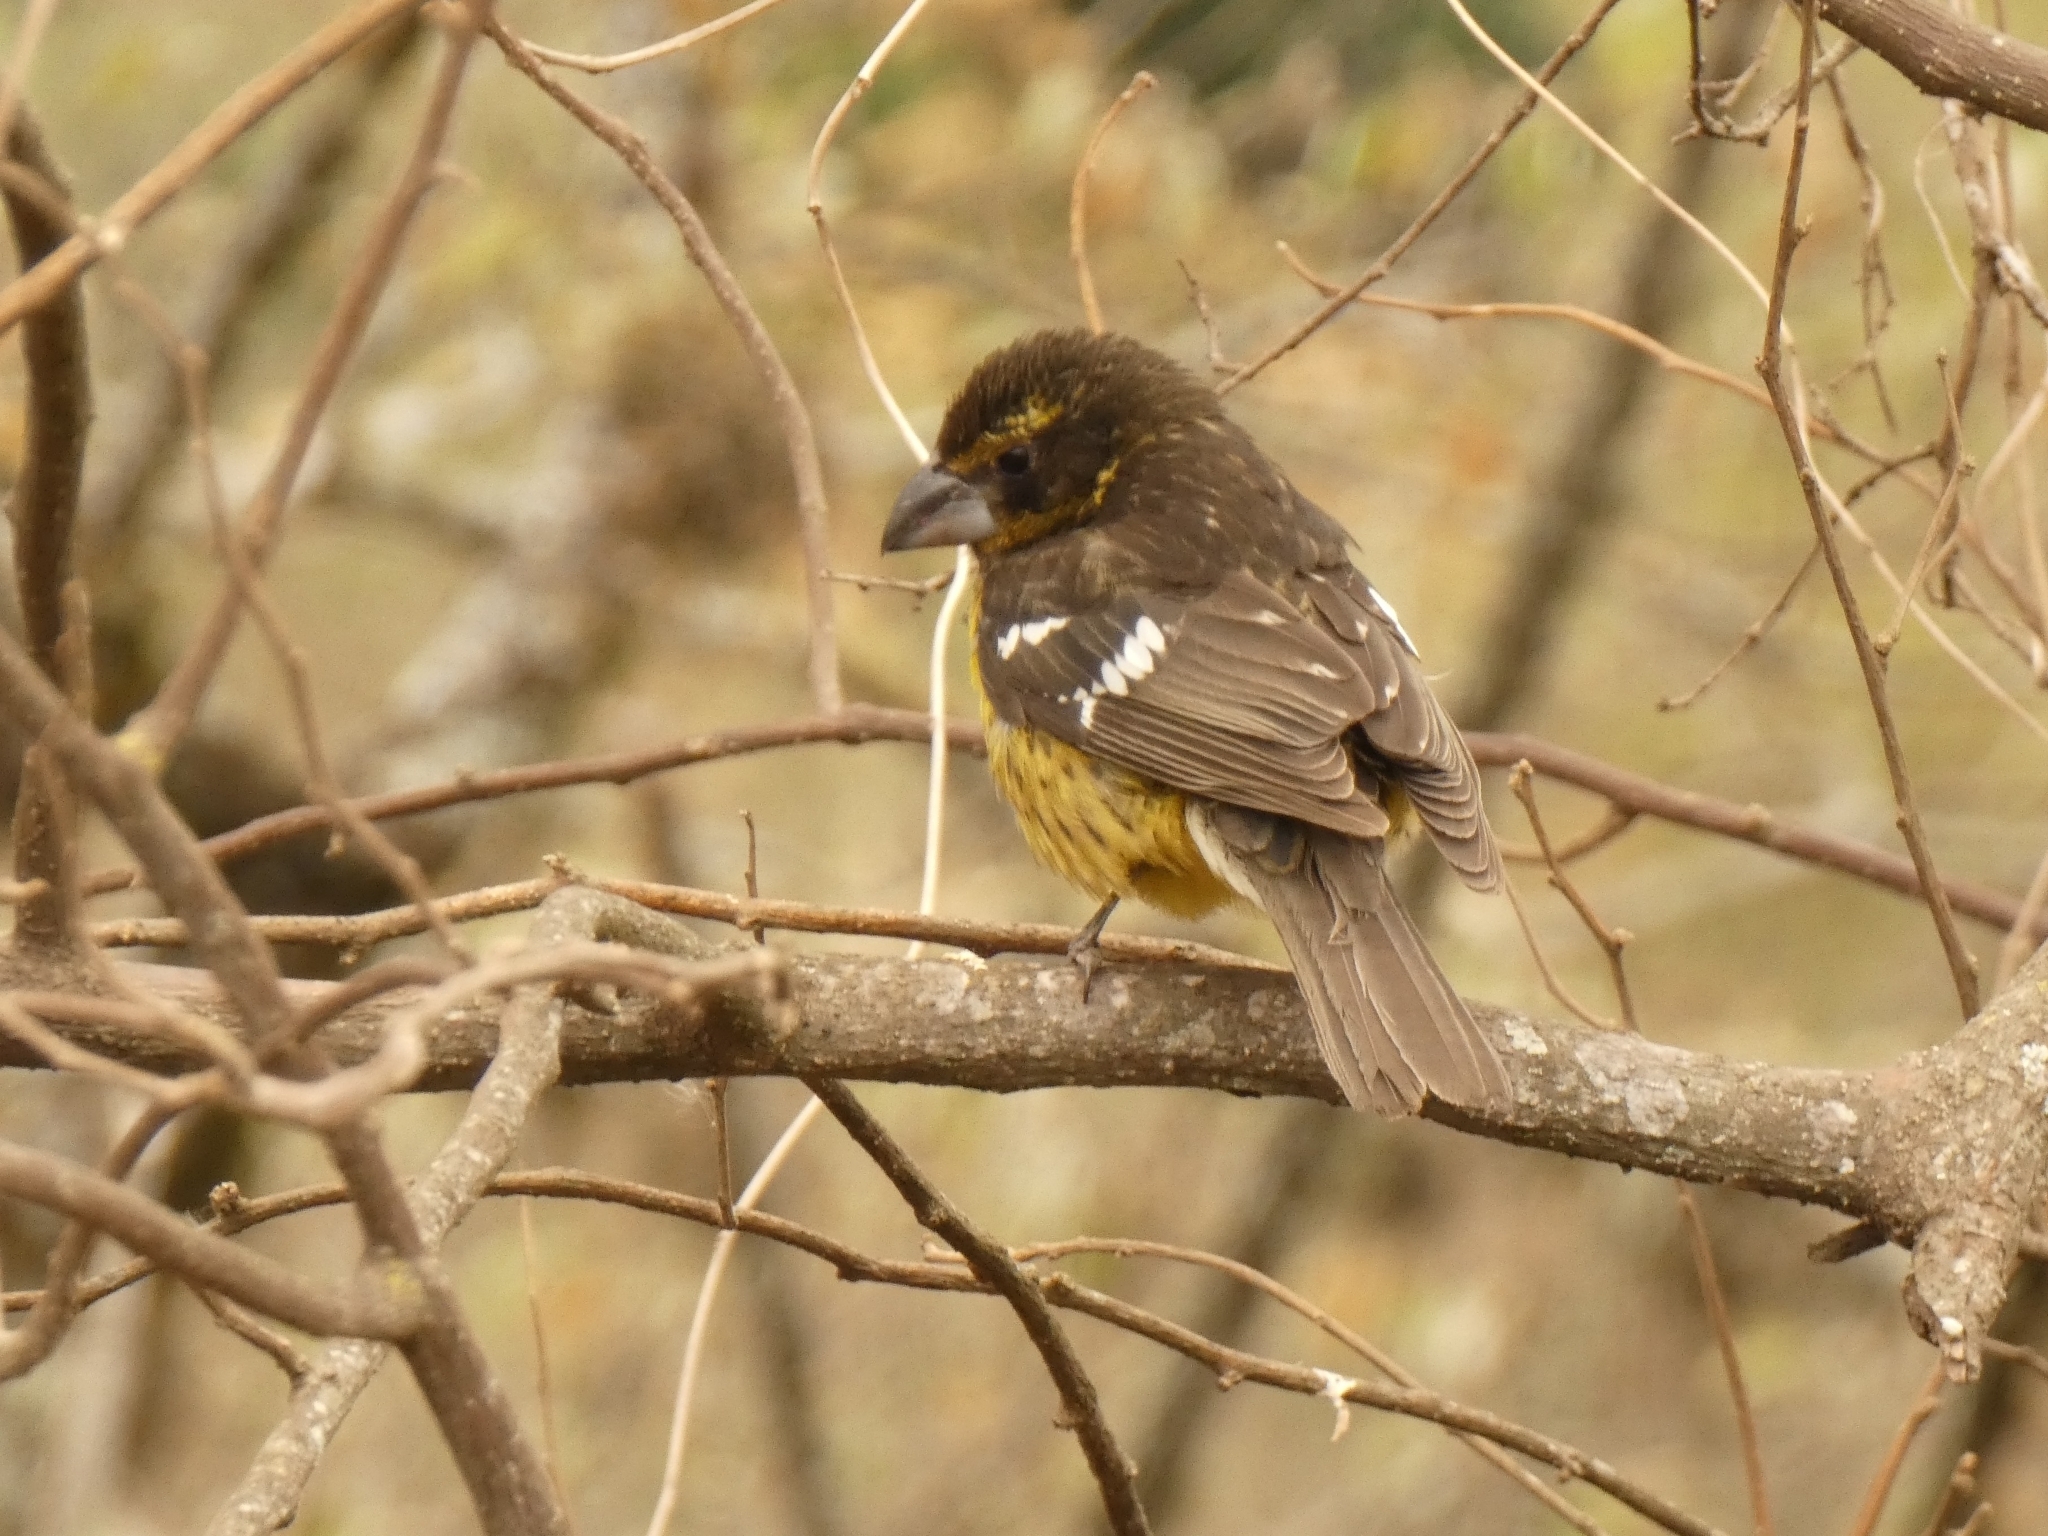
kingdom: Animalia
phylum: Chordata
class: Aves
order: Passeriformes
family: Cardinalidae
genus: Pheucticus
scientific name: Pheucticus aureoventris
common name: Black-backed grosbeak
